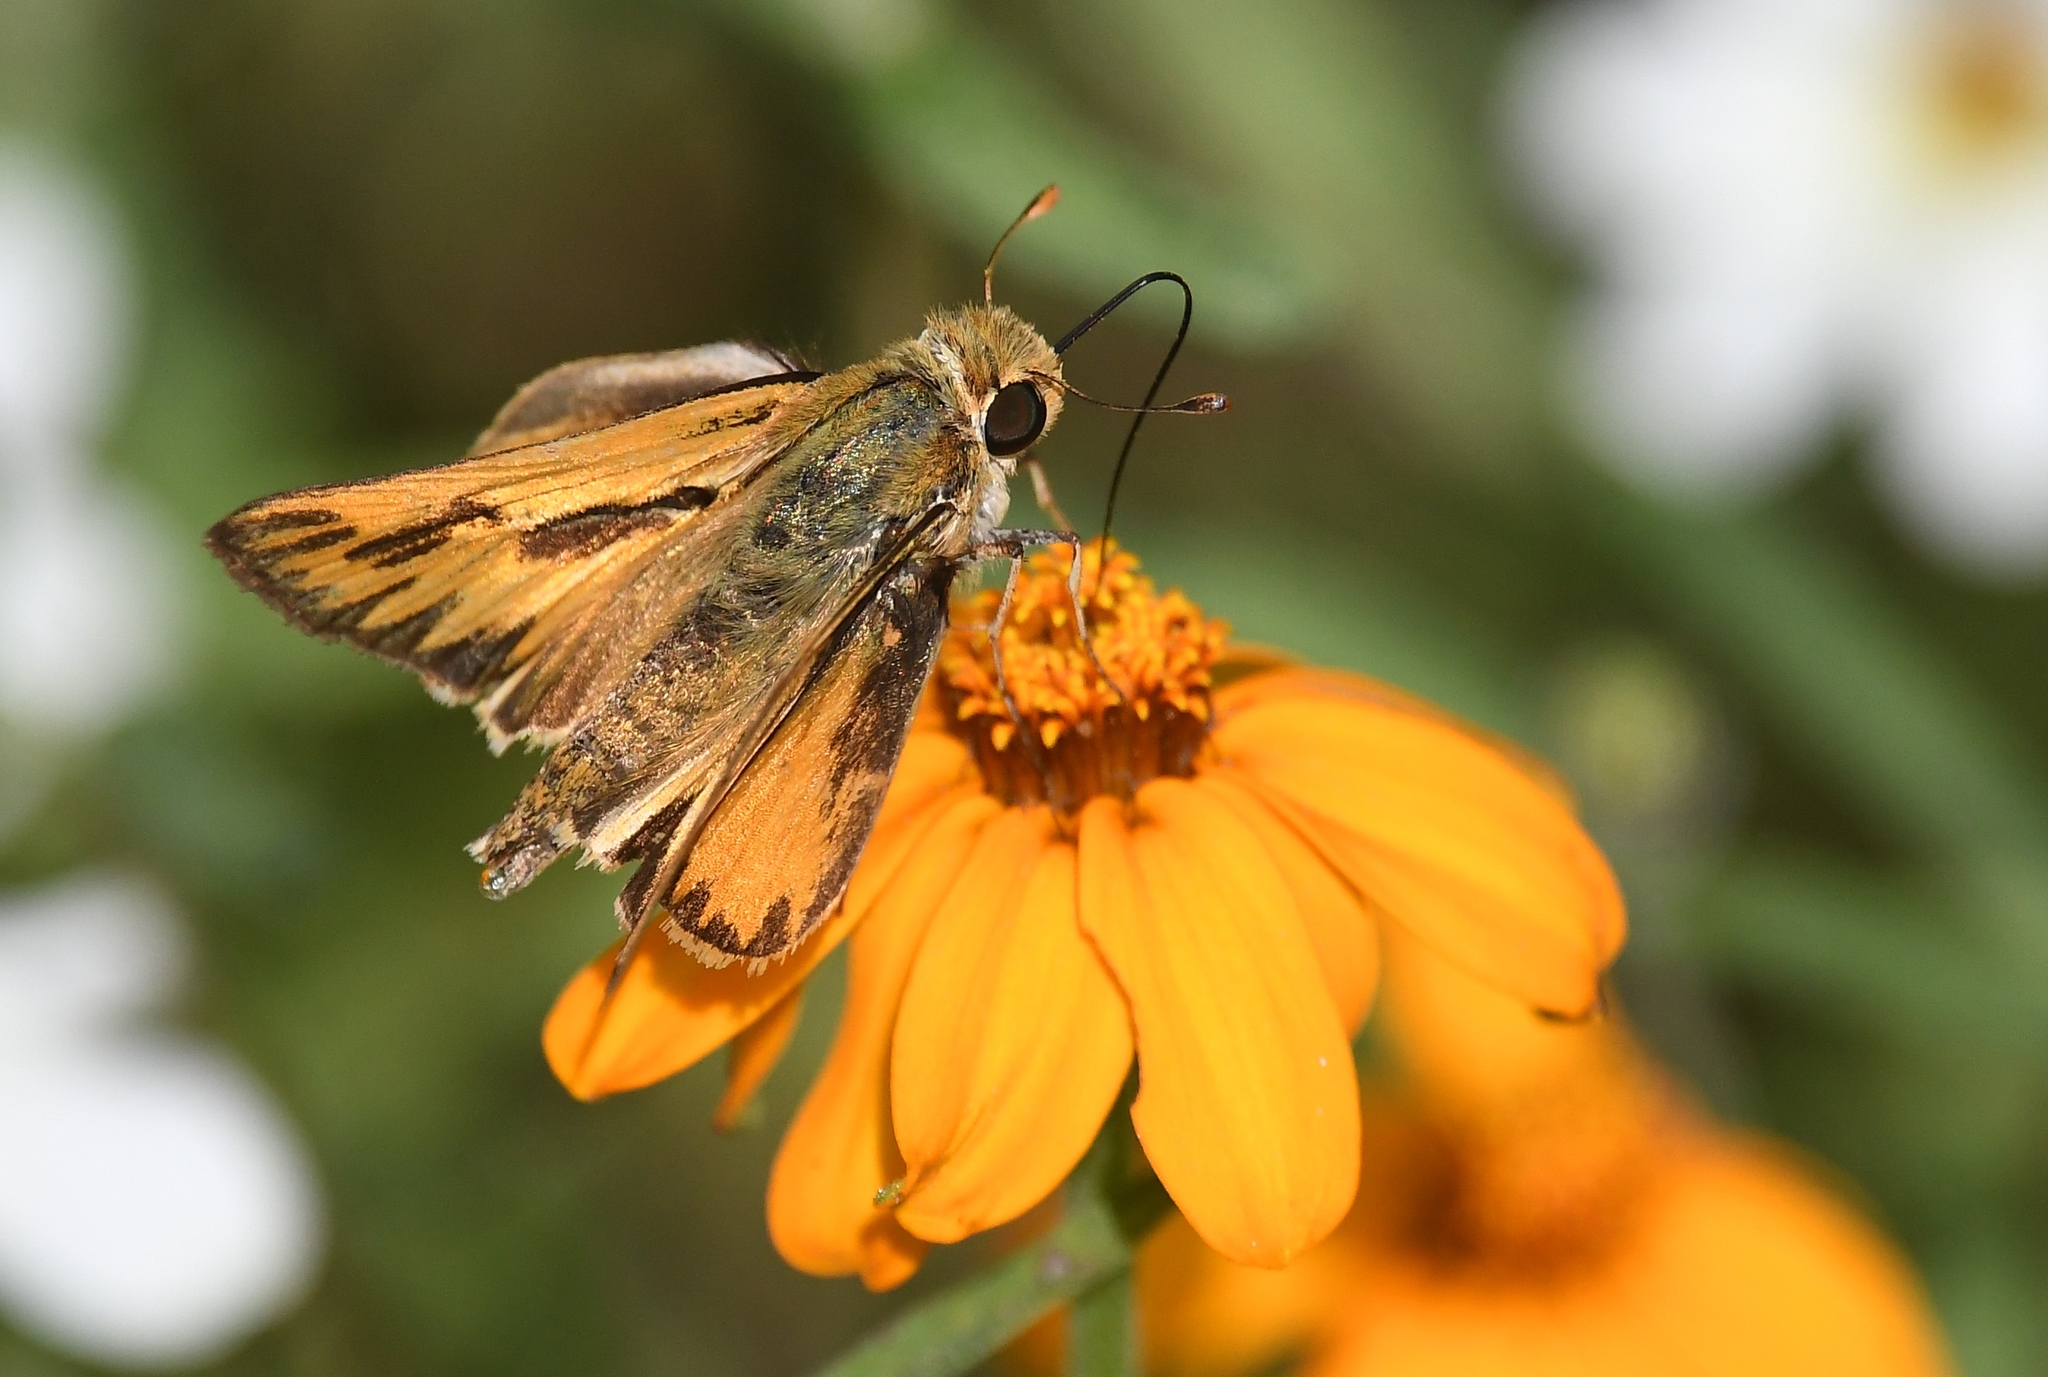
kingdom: Animalia
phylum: Arthropoda
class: Insecta
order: Lepidoptera
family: Hesperiidae
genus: Hylephila
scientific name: Hylephila phyleus
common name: Fiery skipper
